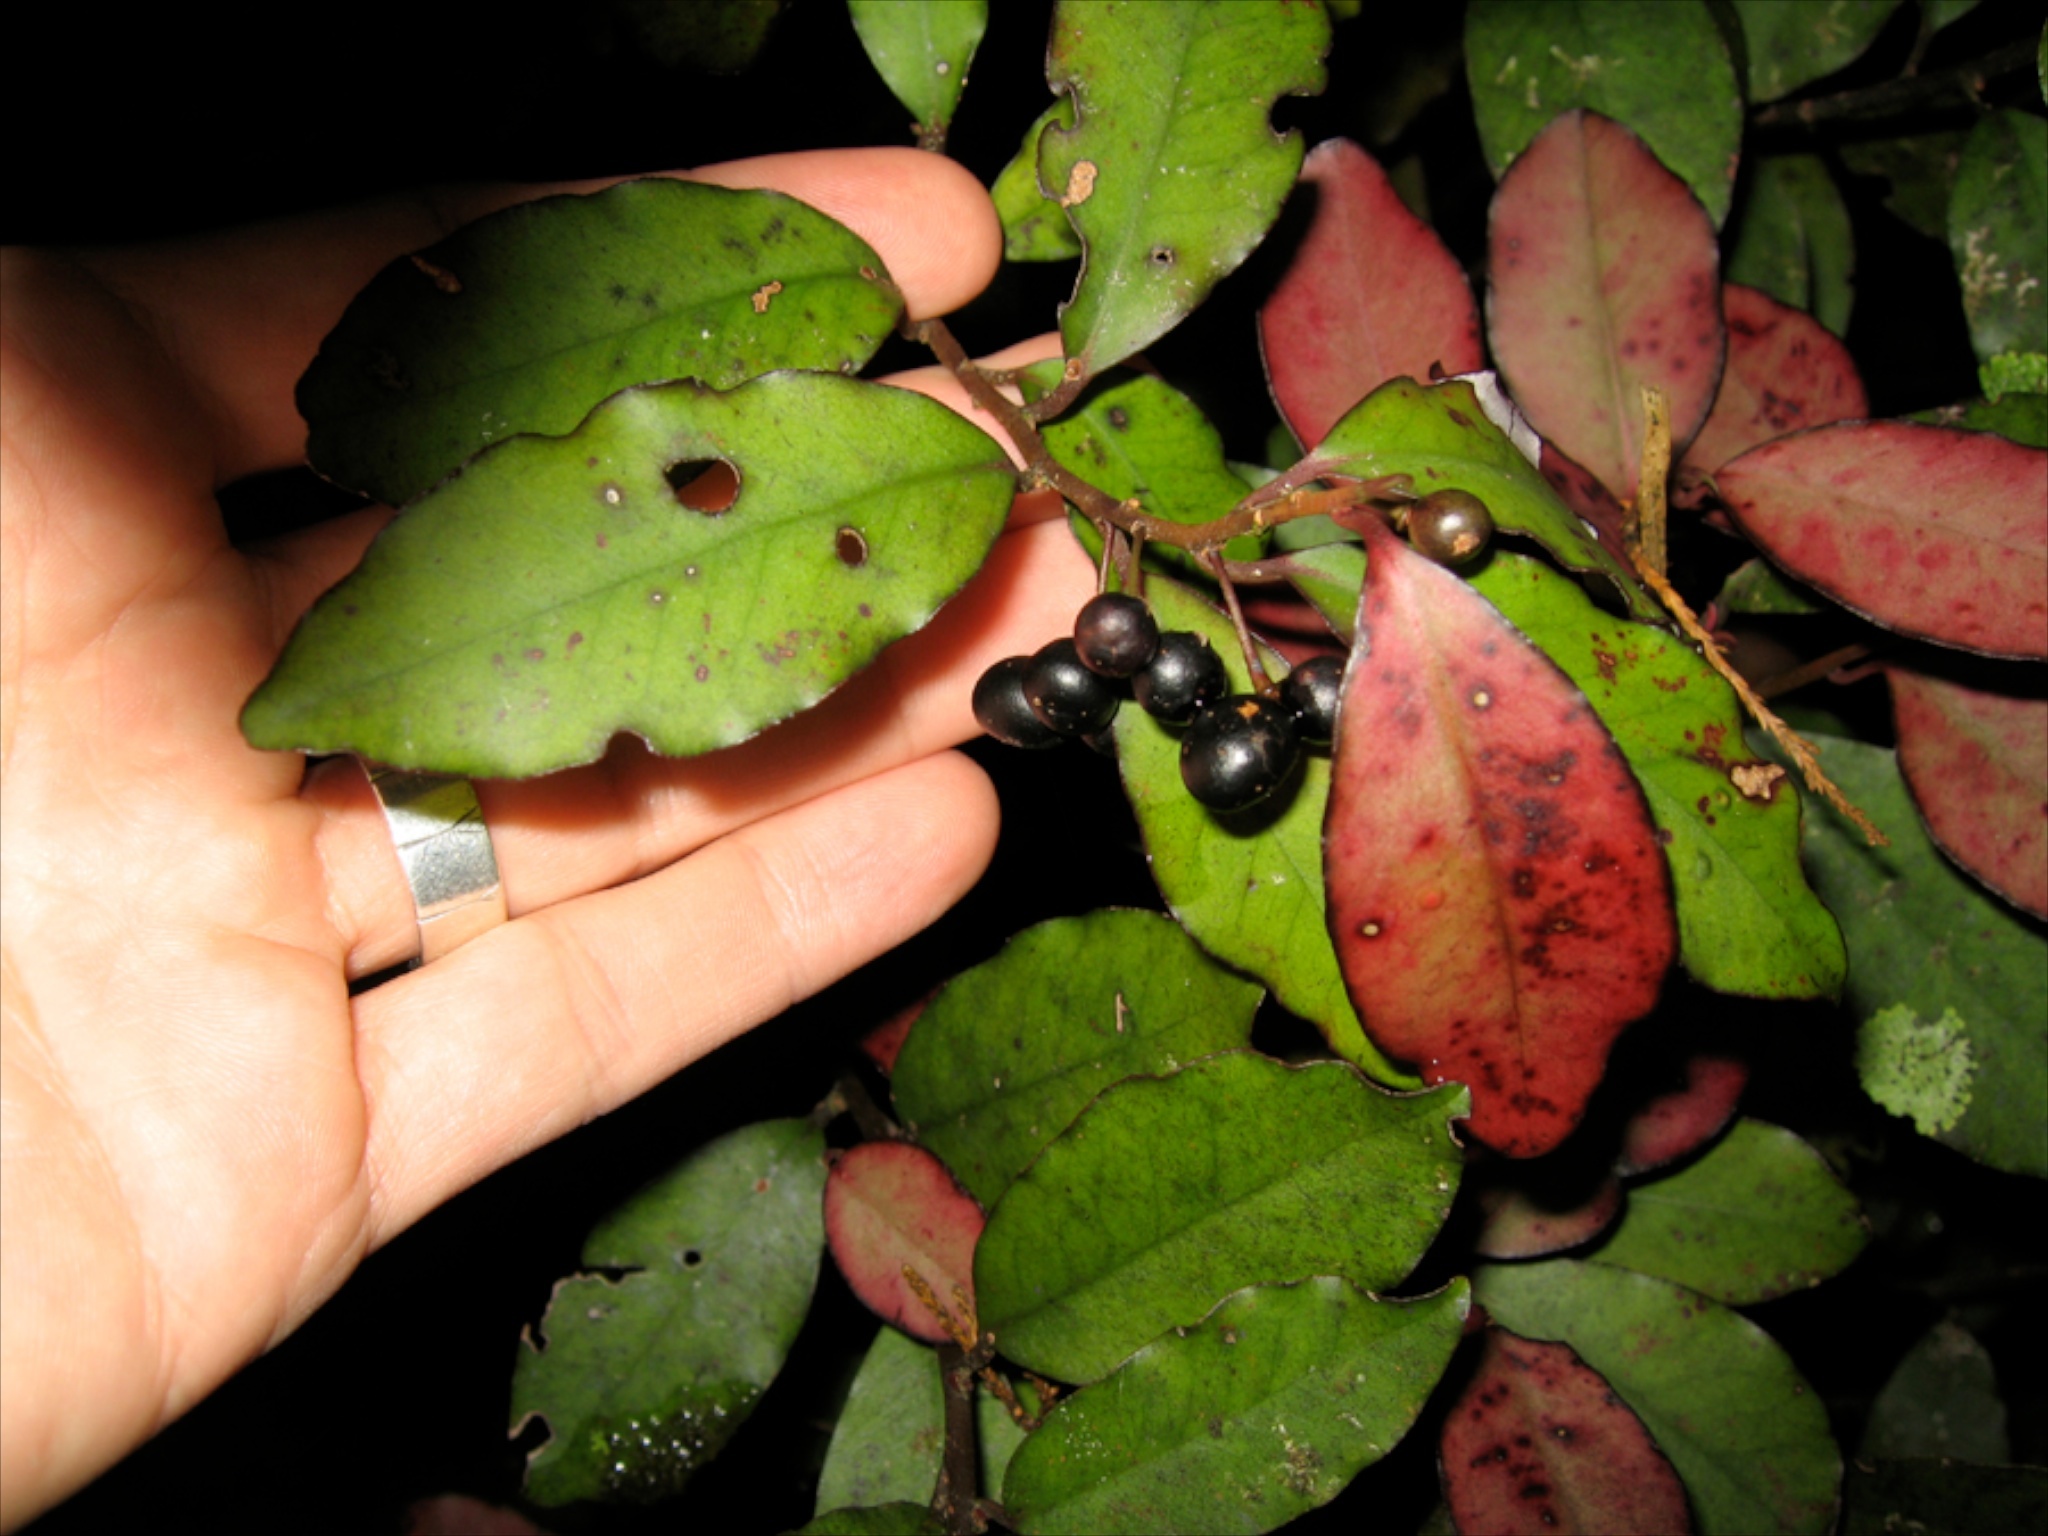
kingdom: Plantae
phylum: Tracheophyta
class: Magnoliopsida
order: Canellales
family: Winteraceae
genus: Pseudowintera
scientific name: Pseudowintera colorata
